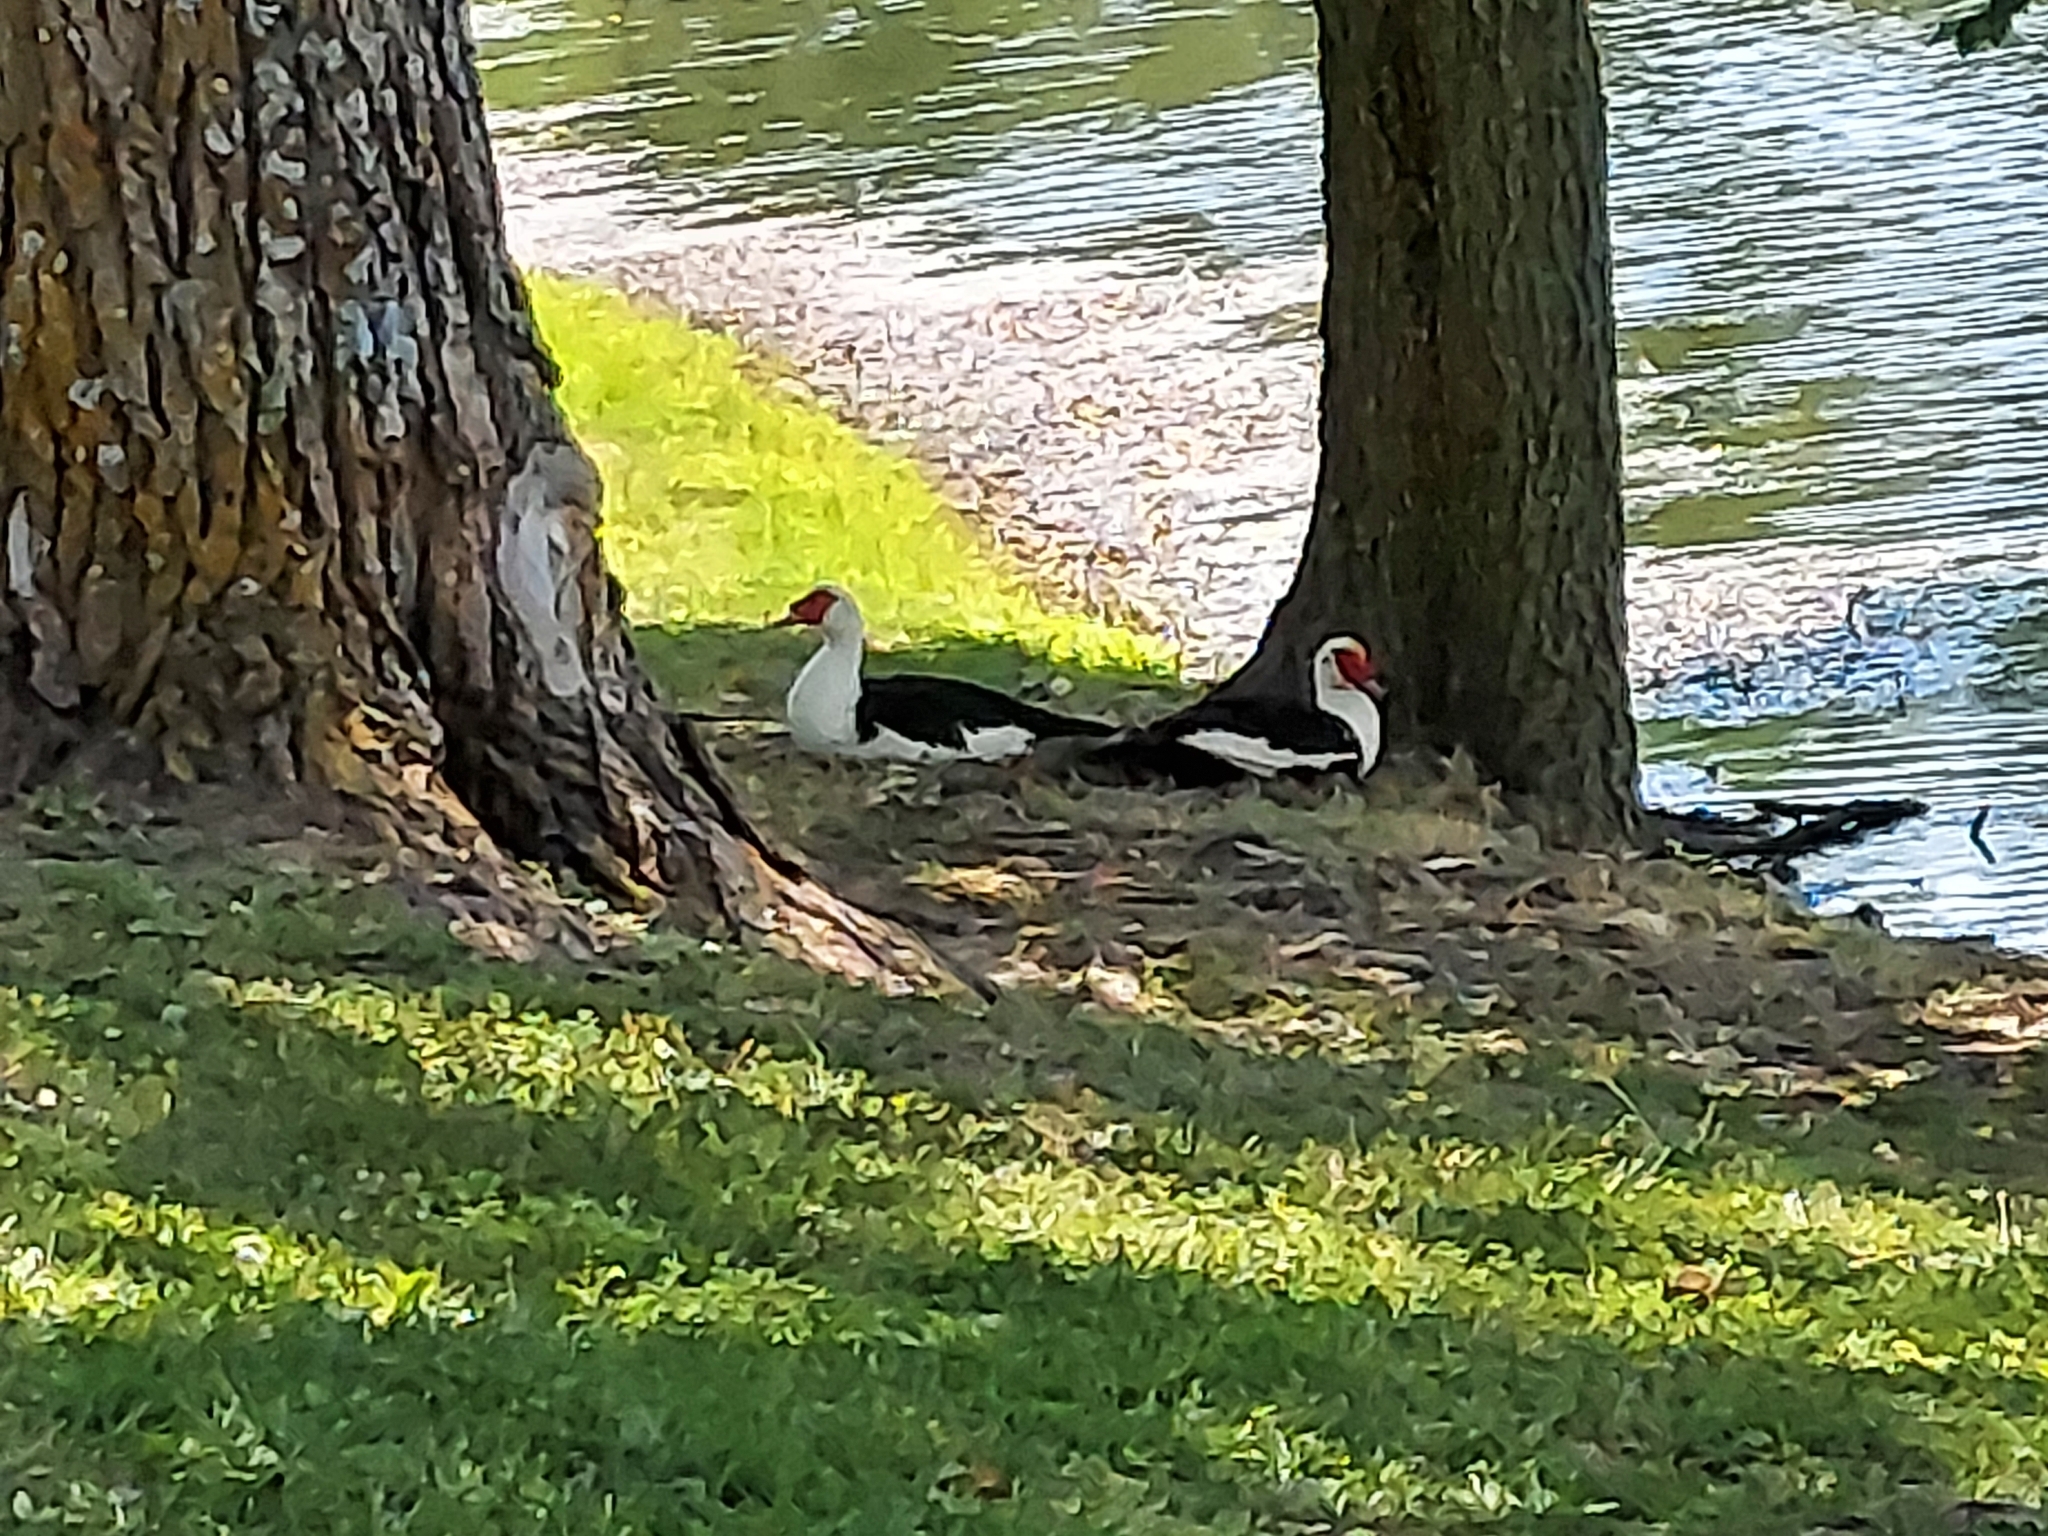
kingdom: Animalia
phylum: Chordata
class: Aves
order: Anseriformes
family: Anatidae
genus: Cairina
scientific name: Cairina moschata
